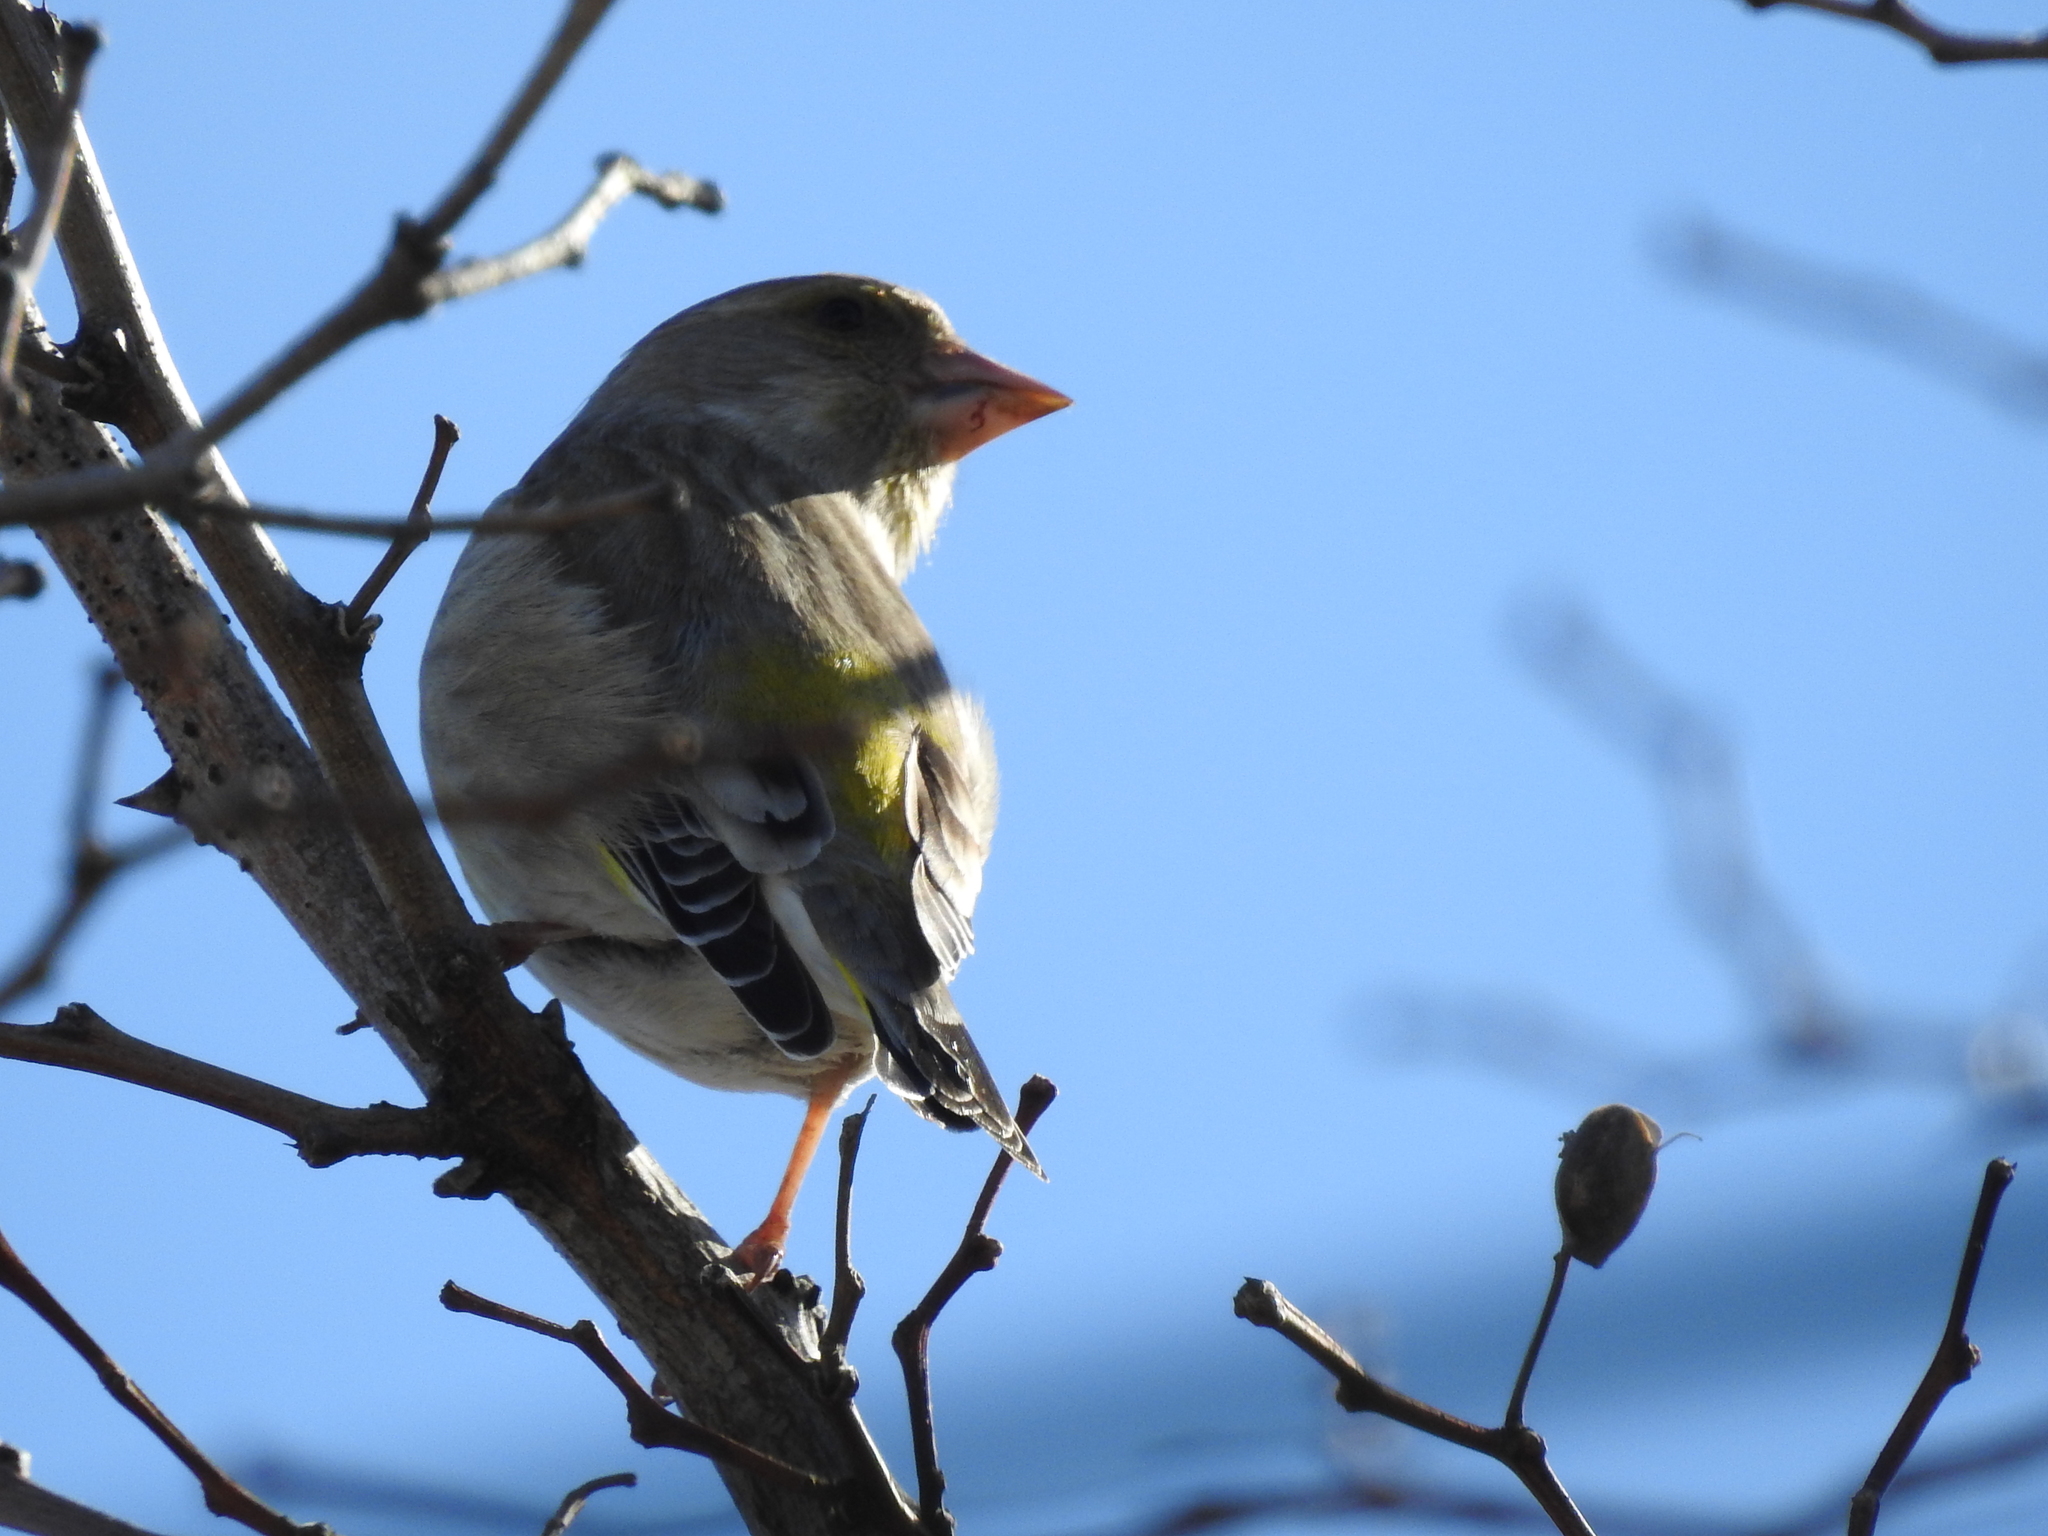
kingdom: Plantae
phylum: Tracheophyta
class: Liliopsida
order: Poales
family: Poaceae
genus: Chloris
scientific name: Chloris chloris
